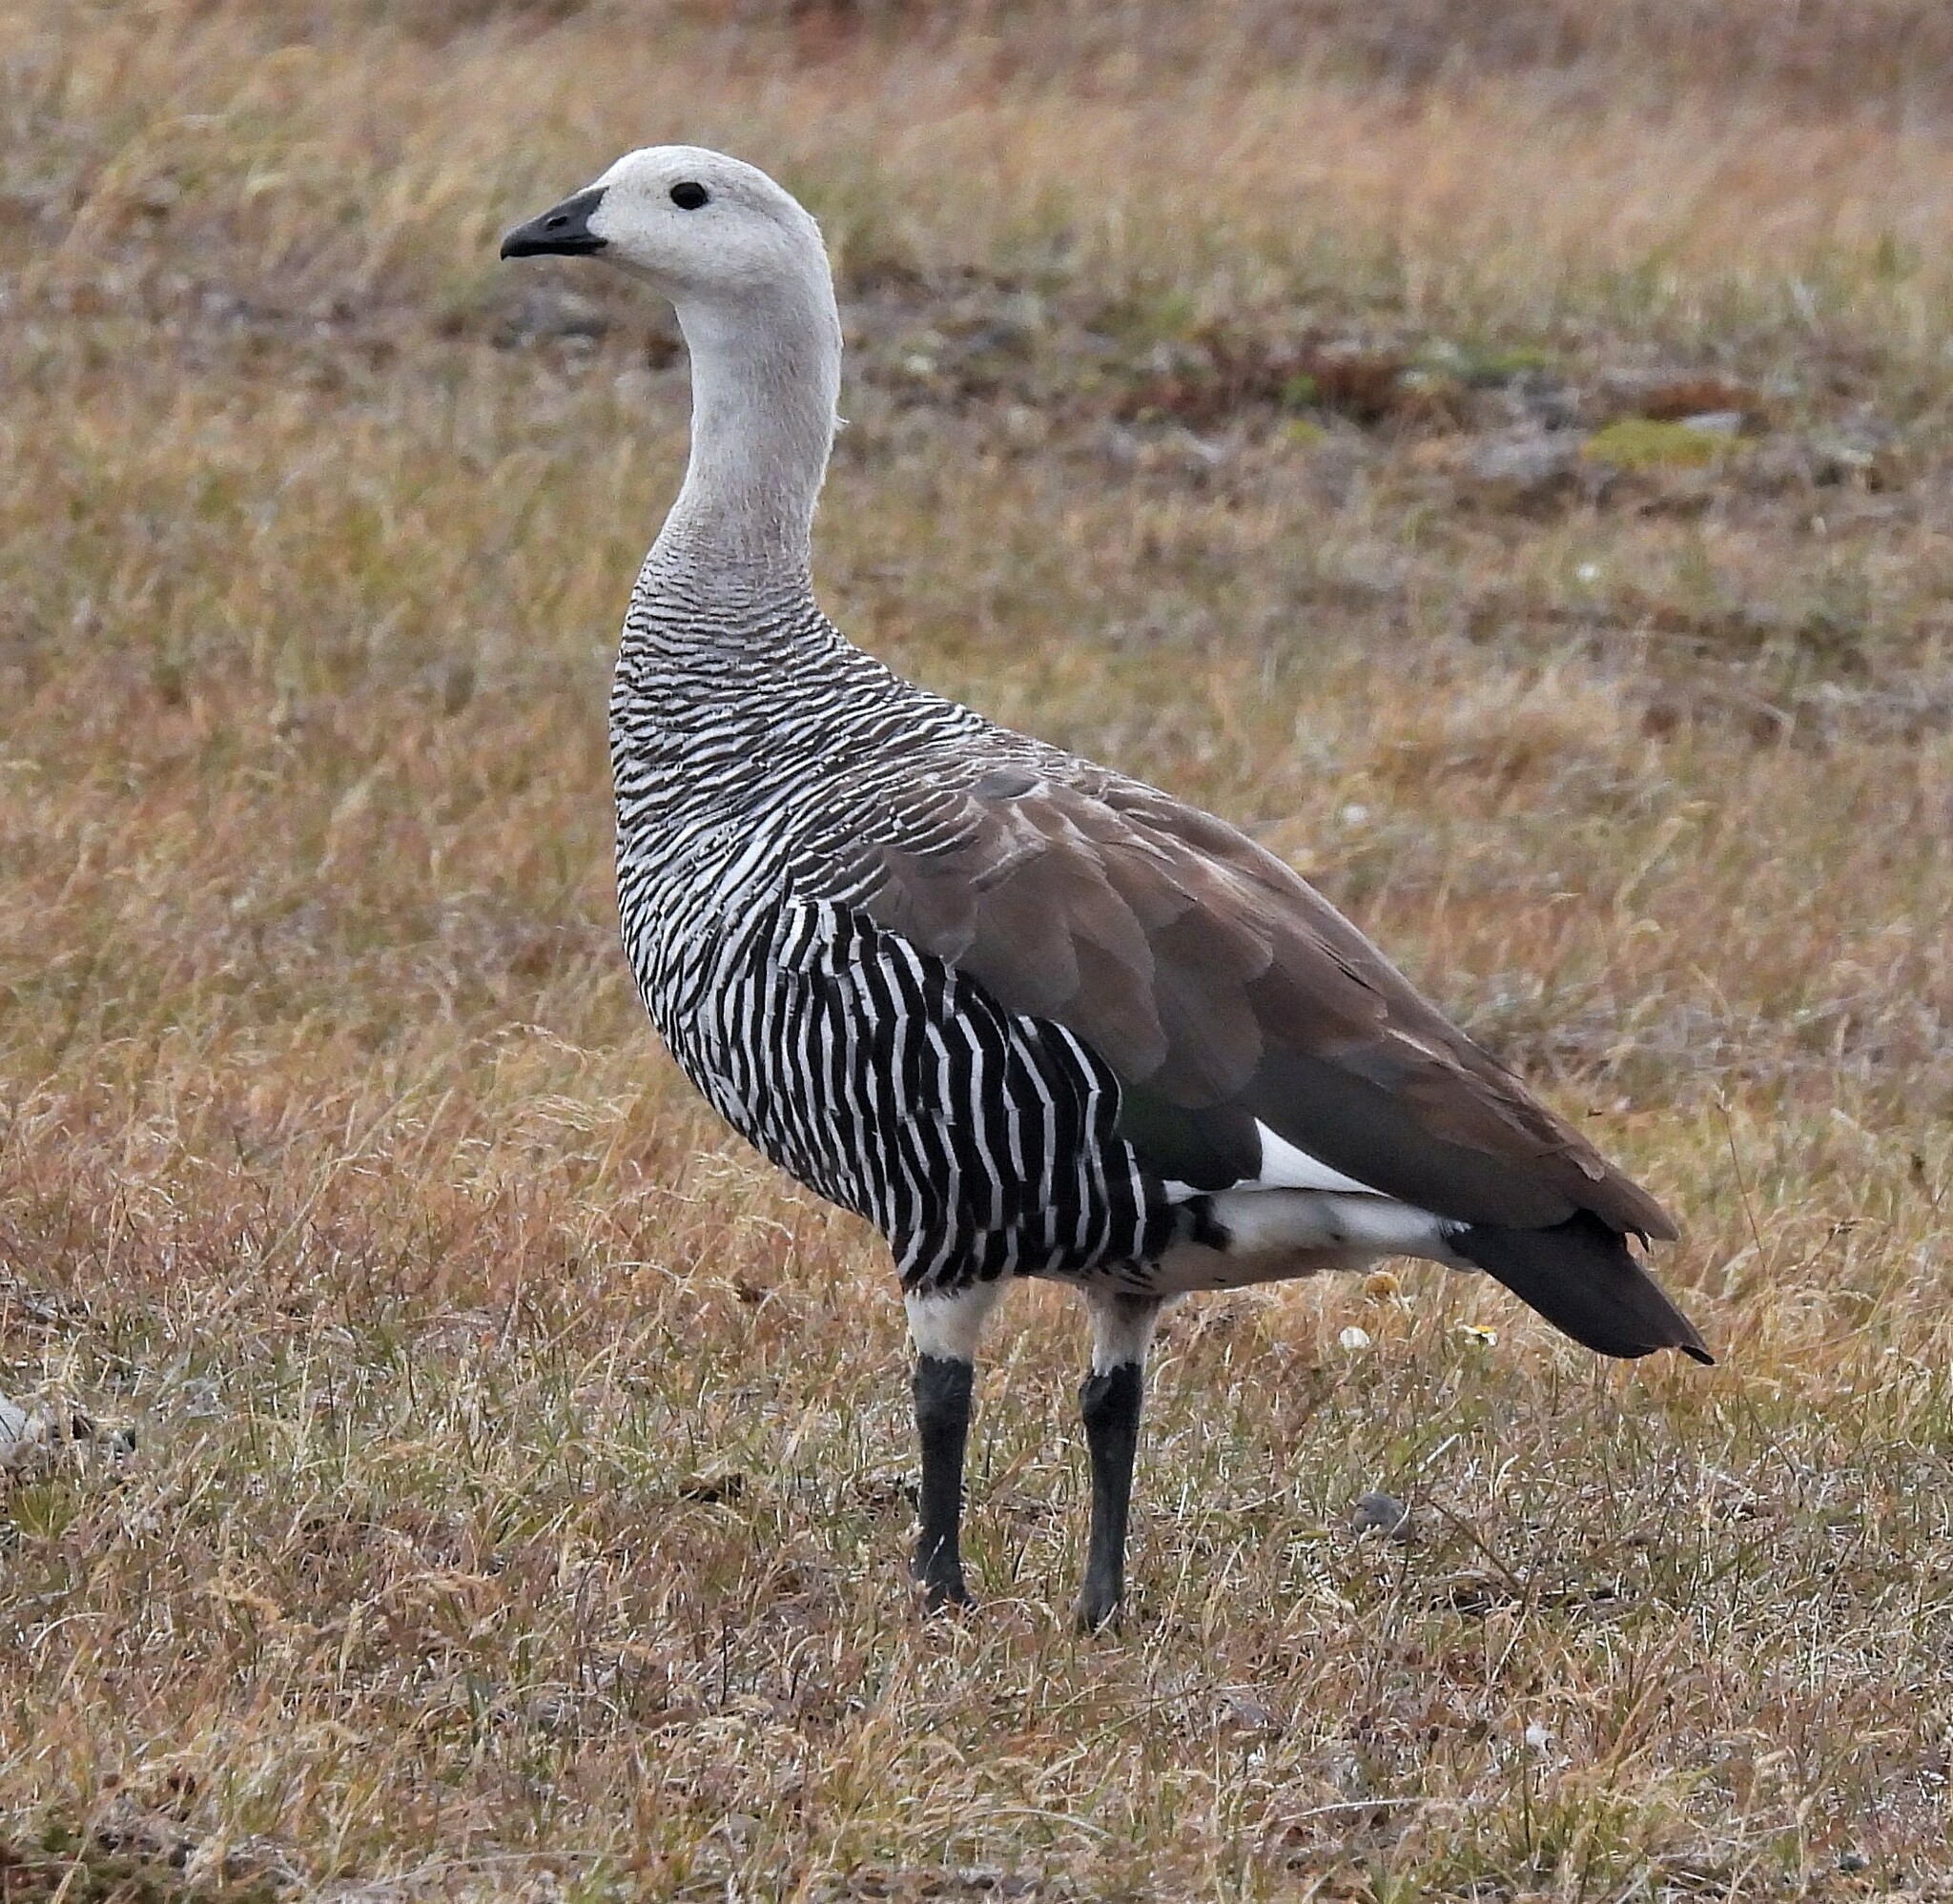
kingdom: Animalia
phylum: Chordata
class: Aves
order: Anseriformes
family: Anatidae
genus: Chloephaga
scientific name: Chloephaga picta
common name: Upland goose
